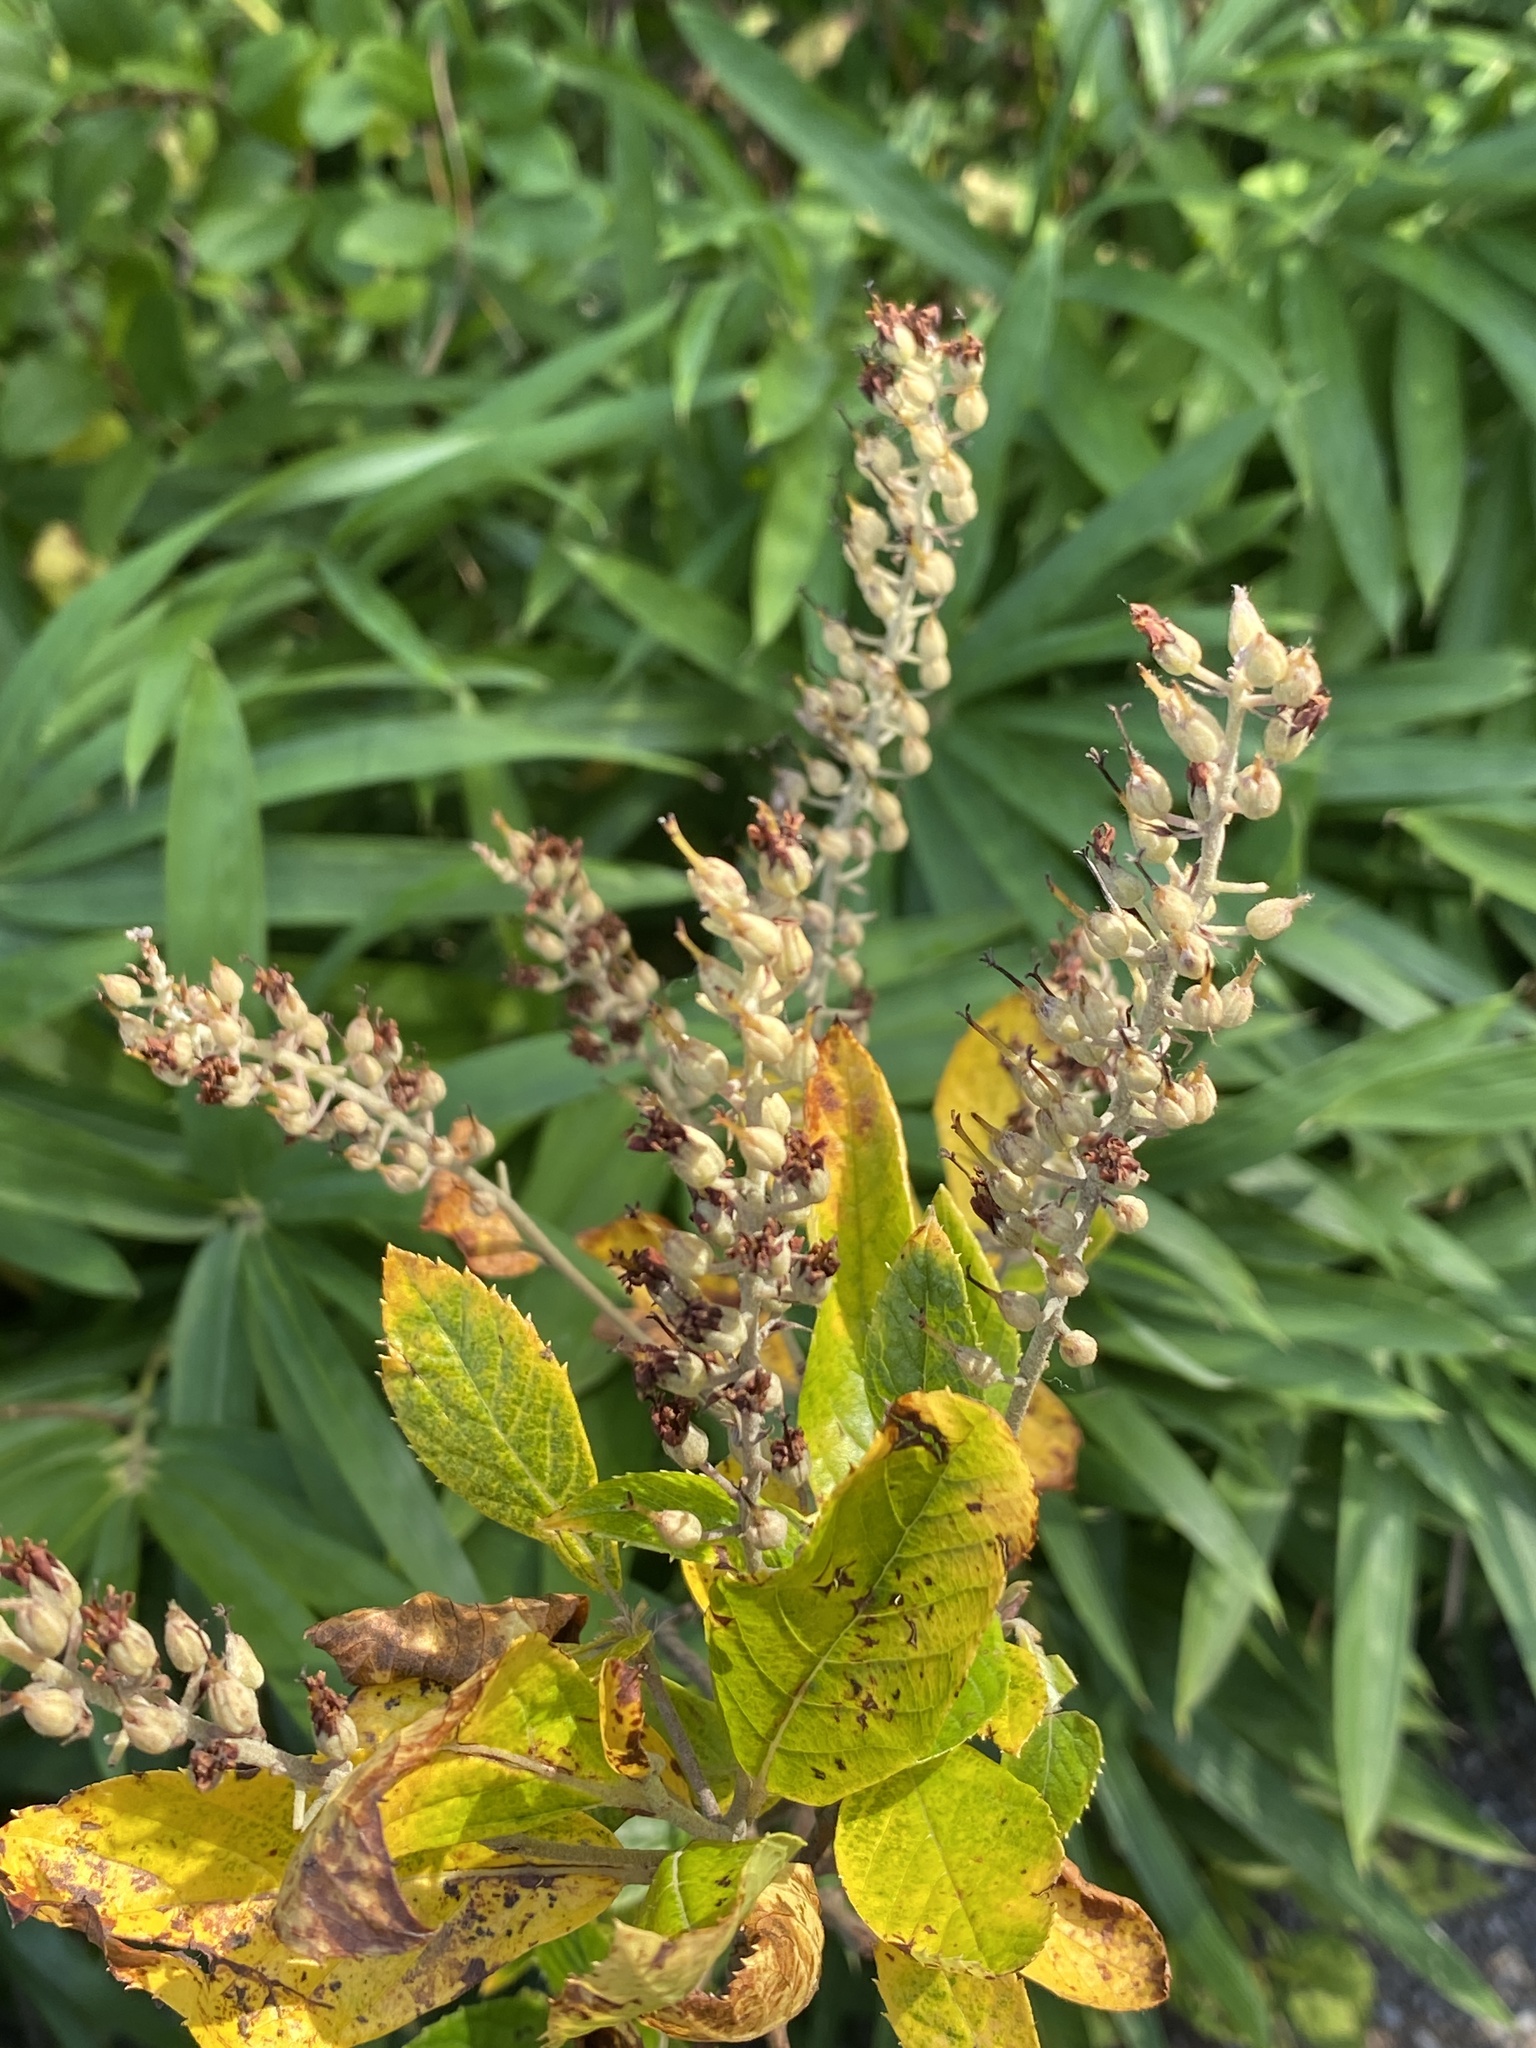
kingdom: Plantae
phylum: Tracheophyta
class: Magnoliopsida
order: Ericales
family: Clethraceae
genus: Clethra
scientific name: Clethra alnifolia
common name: Sweet pepperbush
